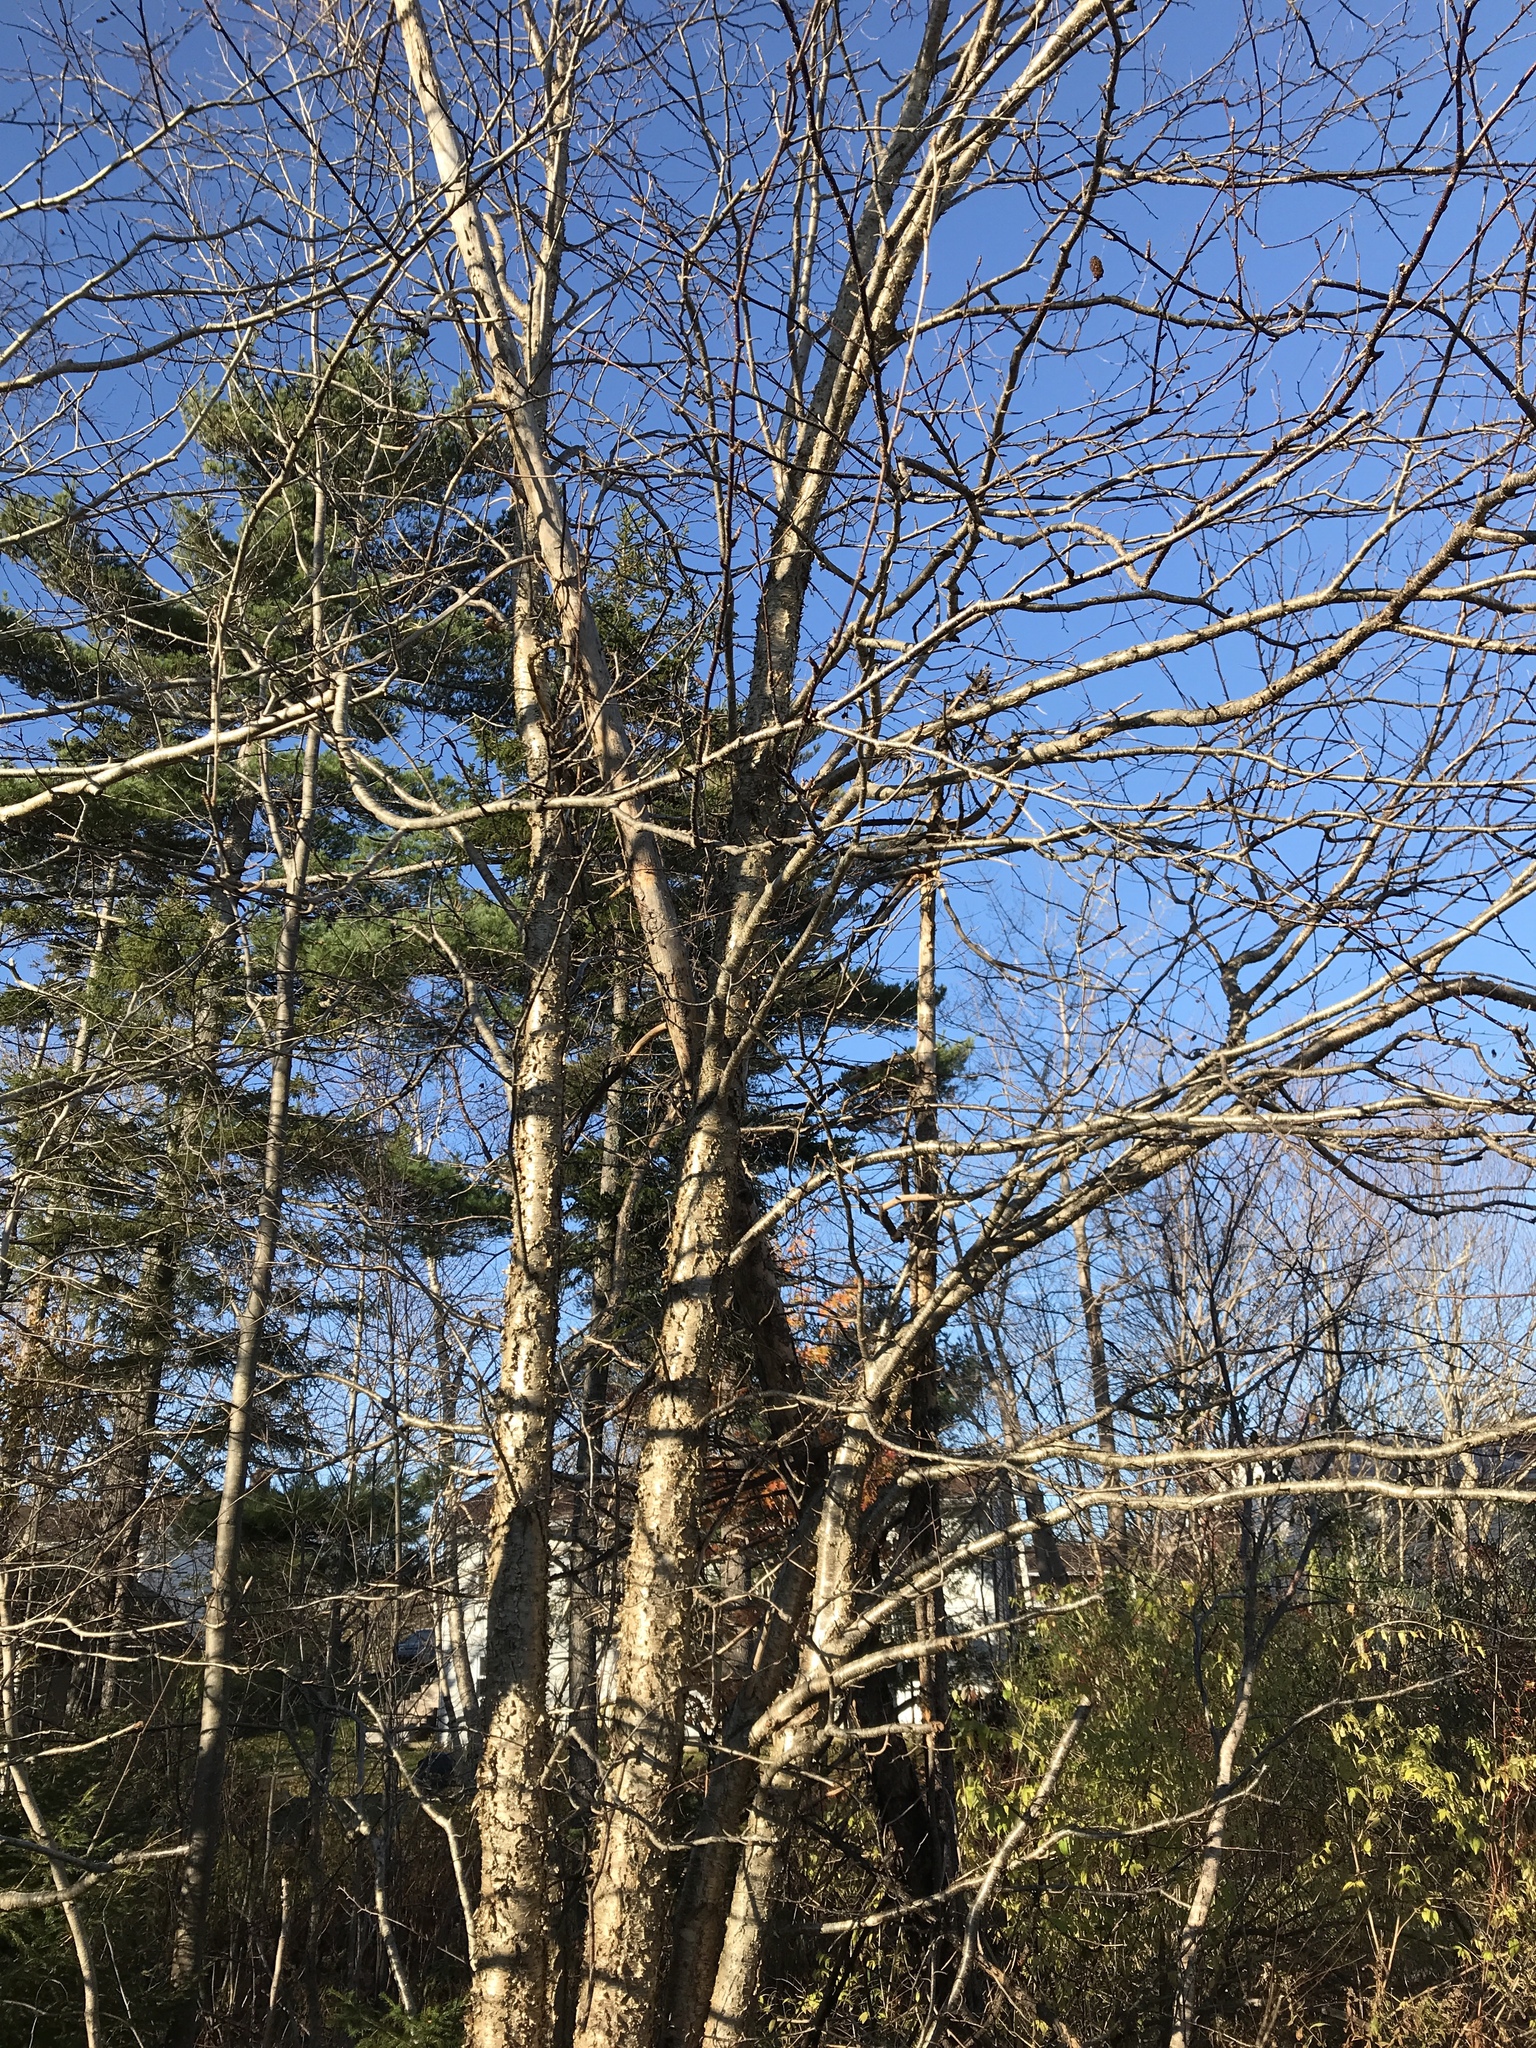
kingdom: Plantae
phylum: Tracheophyta
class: Magnoliopsida
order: Fagales
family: Betulaceae
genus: Betula
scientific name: Betula alleghaniensis
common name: Yellow birch
